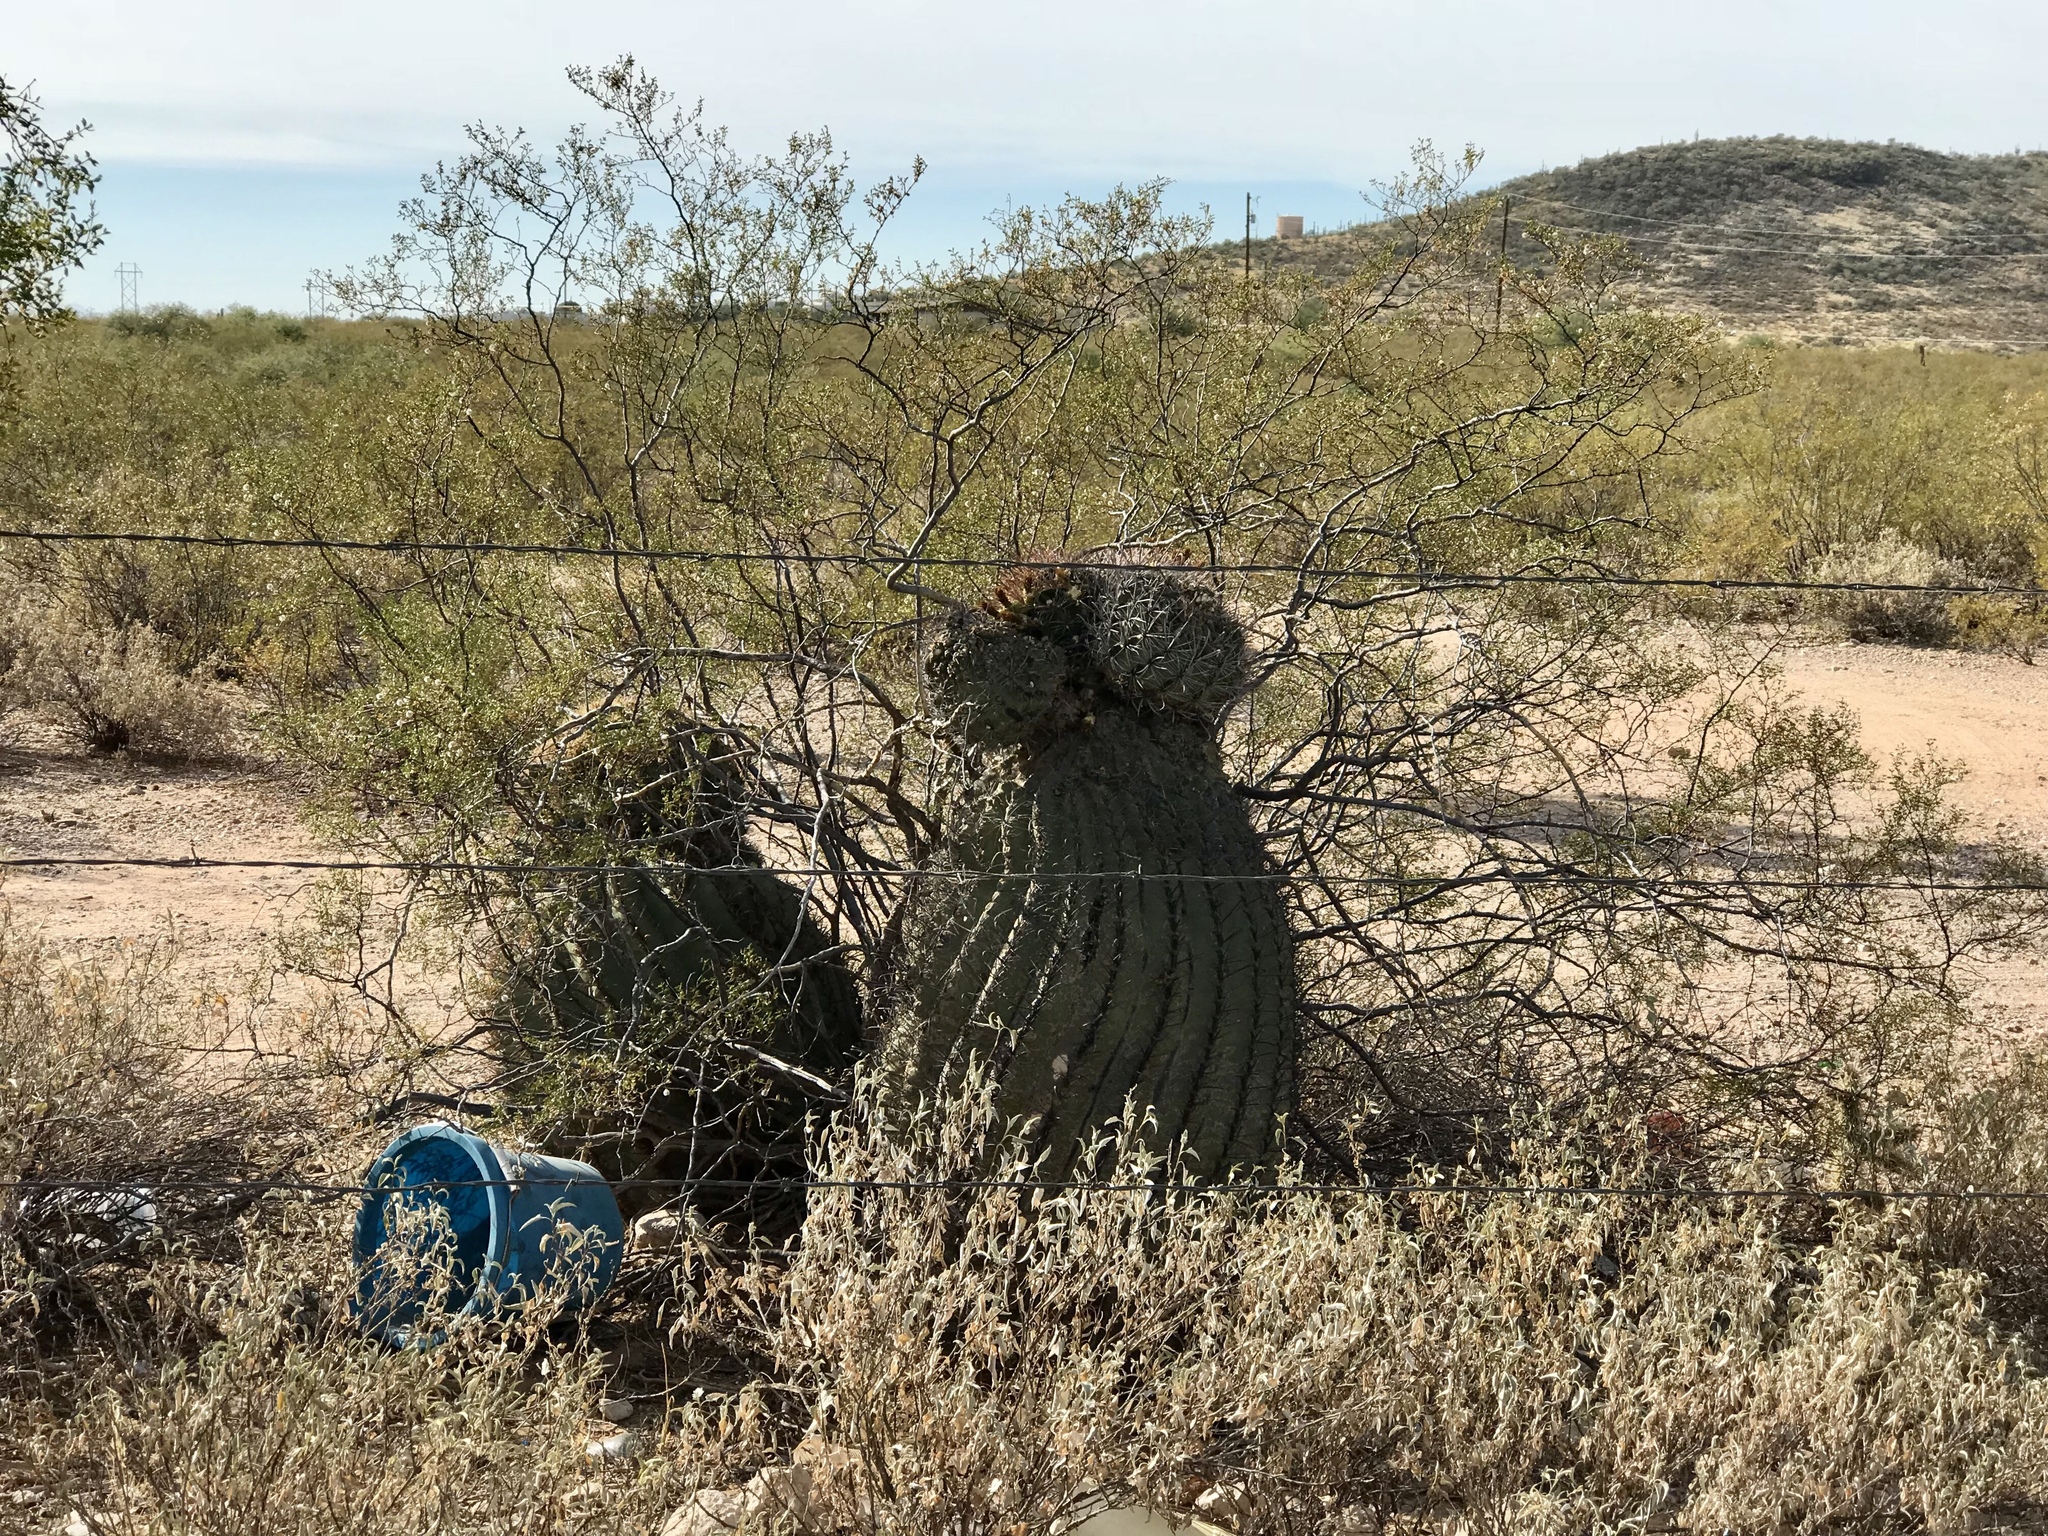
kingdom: Plantae
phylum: Tracheophyta
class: Magnoliopsida
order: Caryophyllales
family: Cactaceae
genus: Ferocactus
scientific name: Ferocactus wislizeni
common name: Candy barrel cactus
